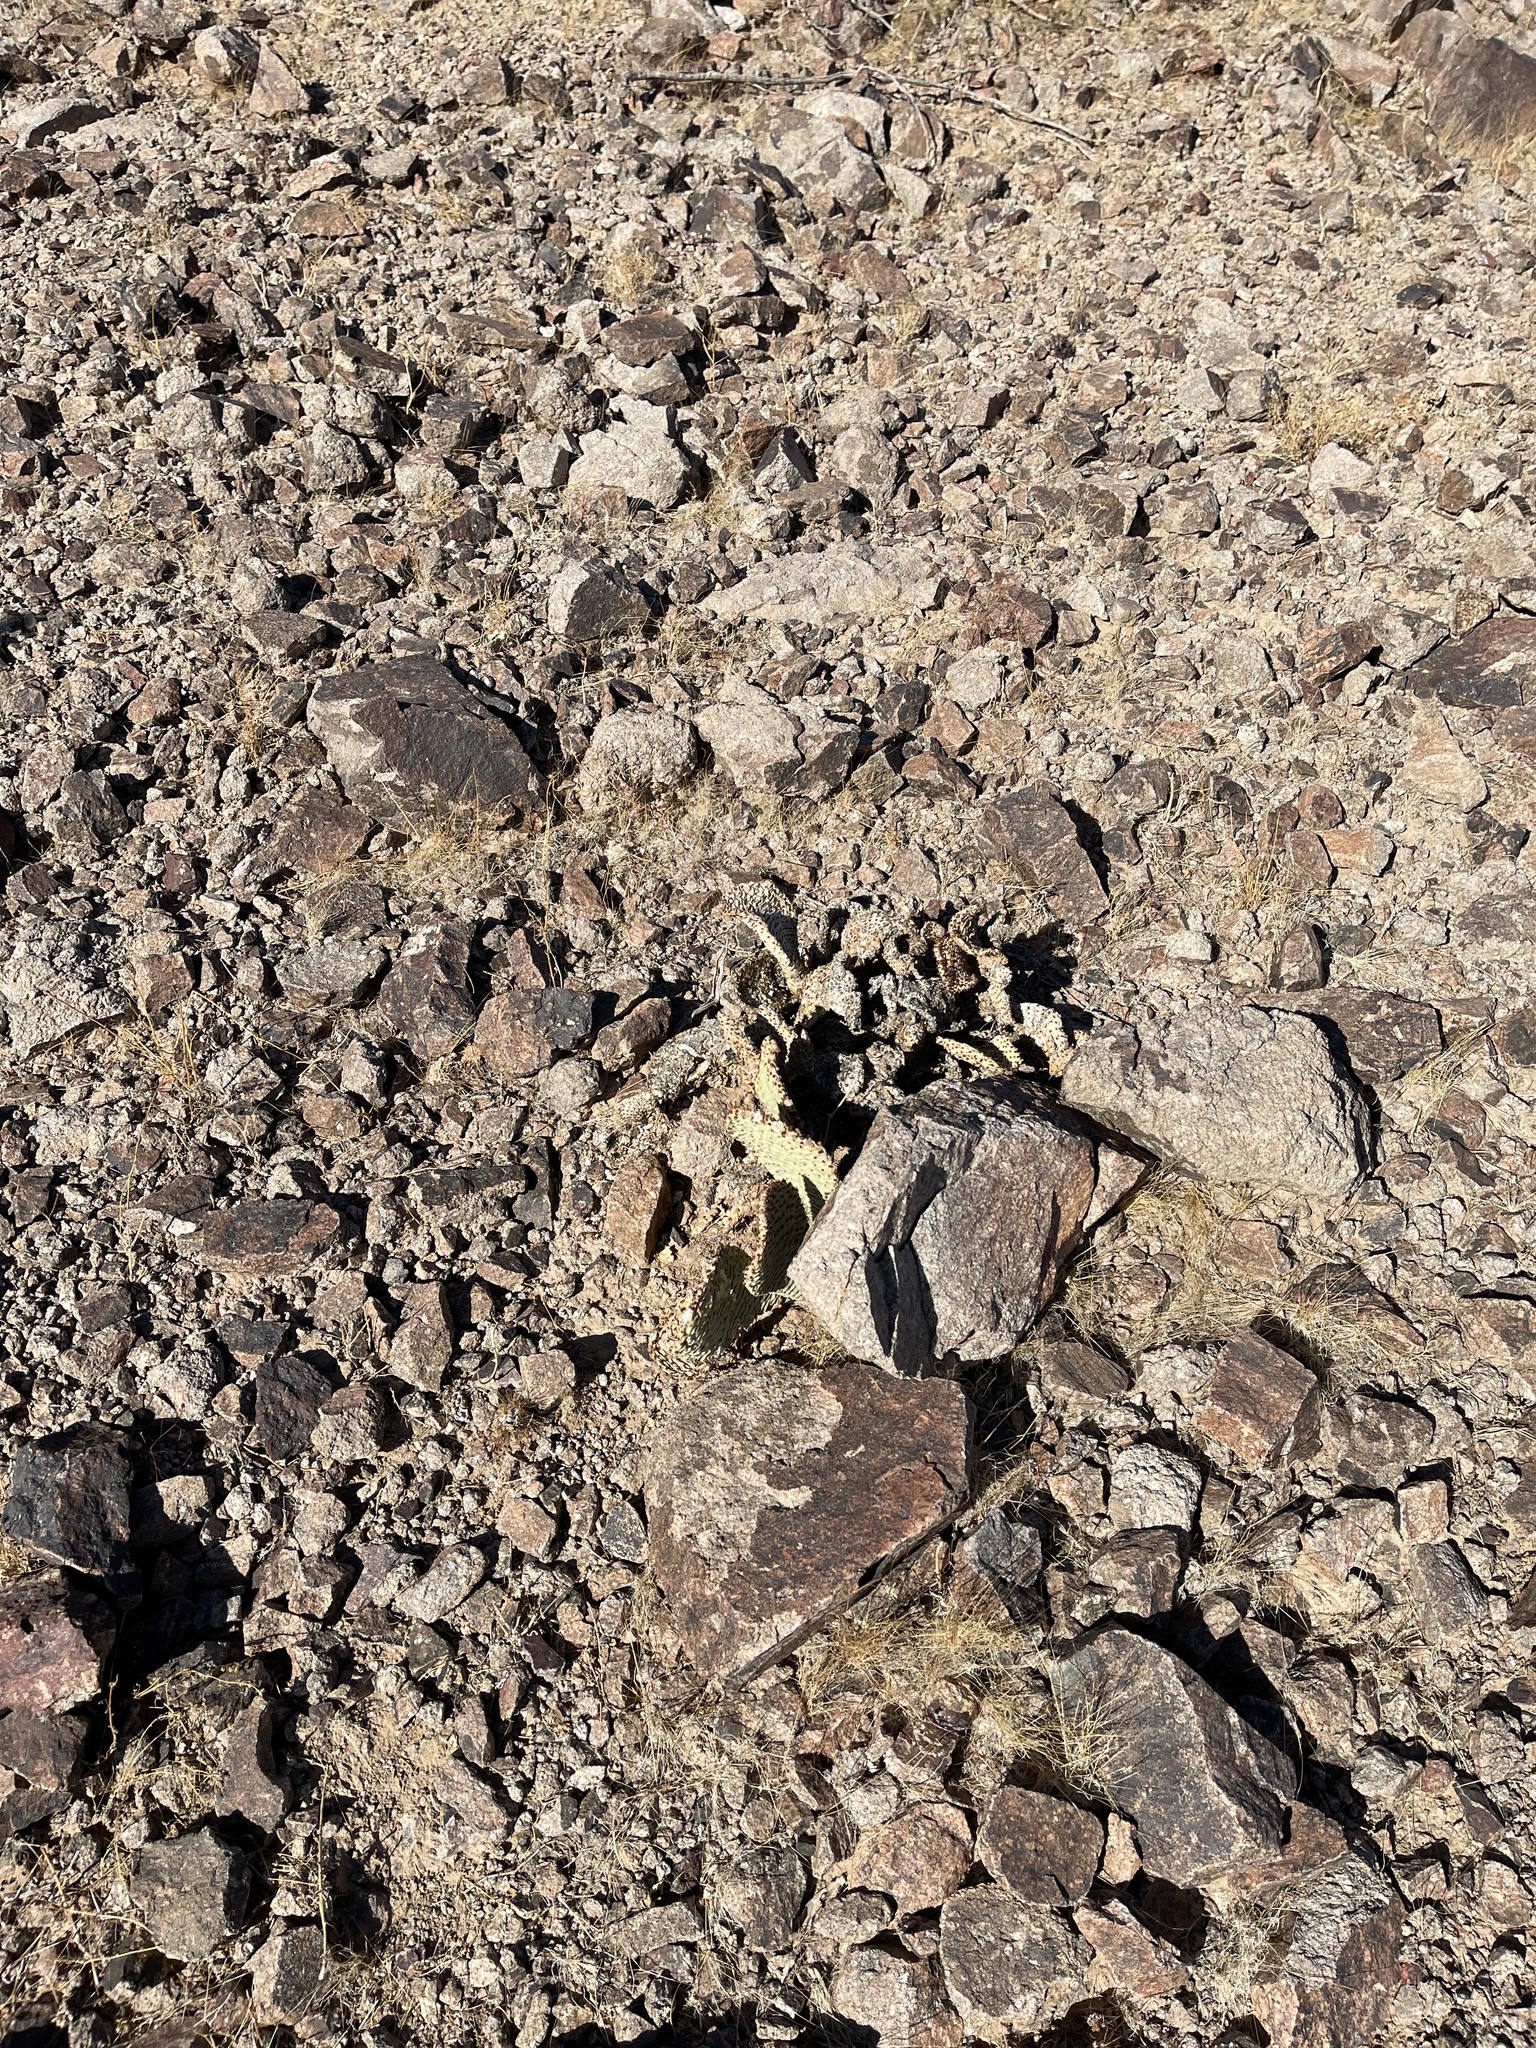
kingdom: Plantae
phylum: Tracheophyta
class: Magnoliopsida
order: Caryophyllales
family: Cactaceae
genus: Opuntia
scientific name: Opuntia basilaris
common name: Beavertail prickly-pear
